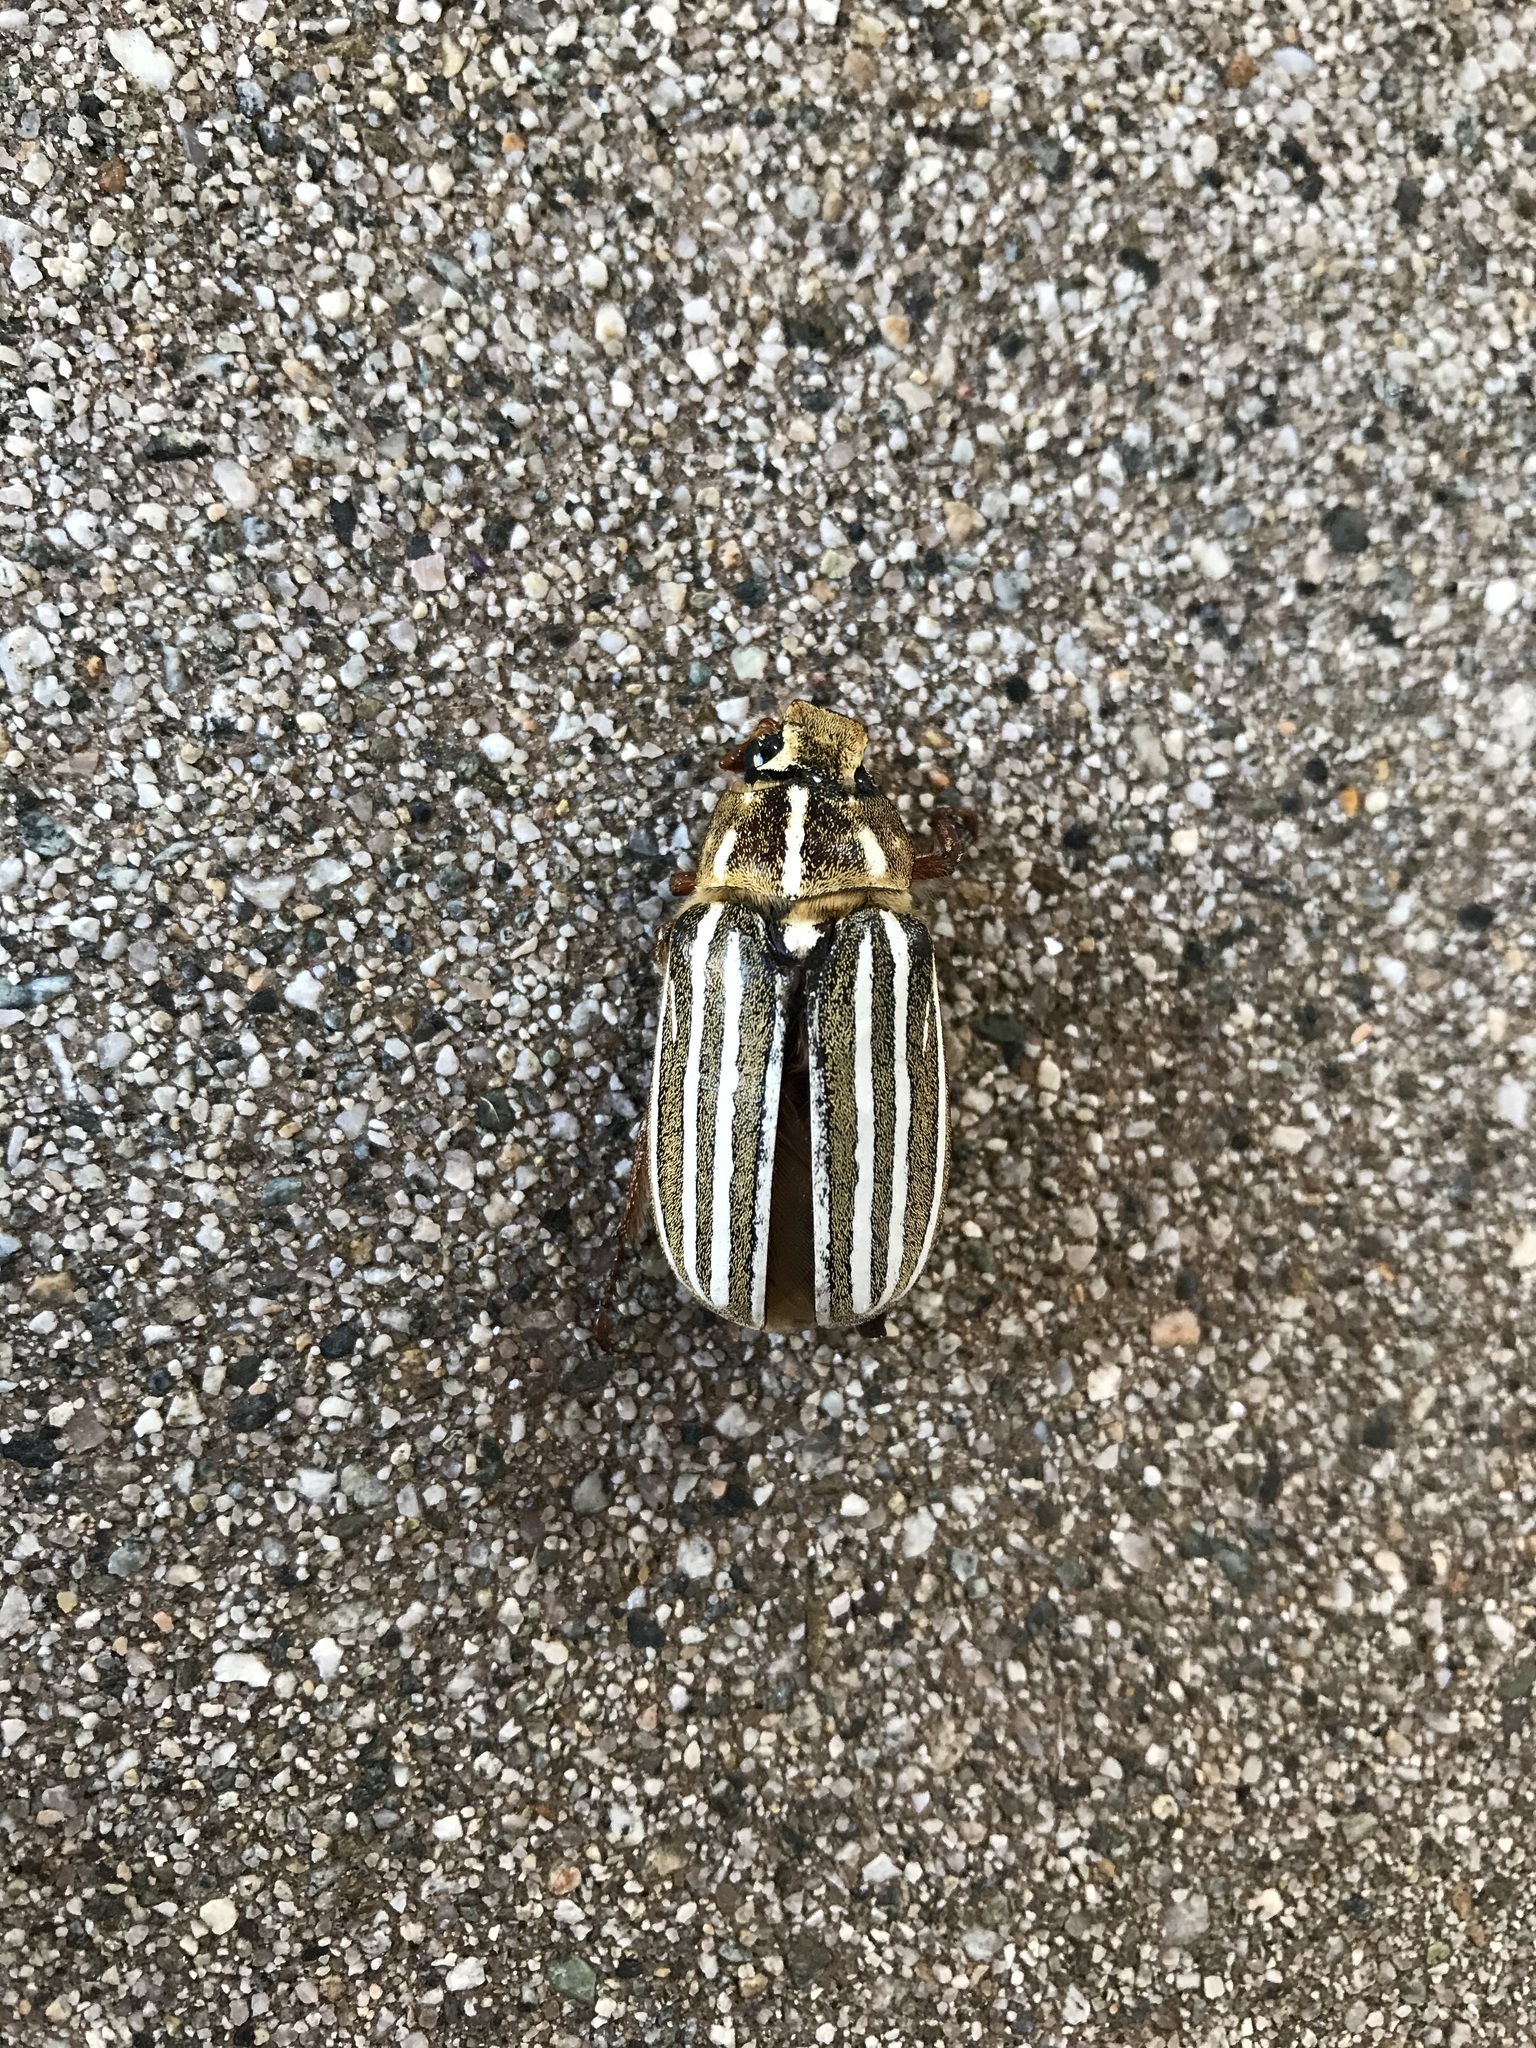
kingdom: Animalia
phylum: Arthropoda
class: Insecta
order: Coleoptera
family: Scarabaeidae
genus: Polyphylla
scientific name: Polyphylla decemlineata
